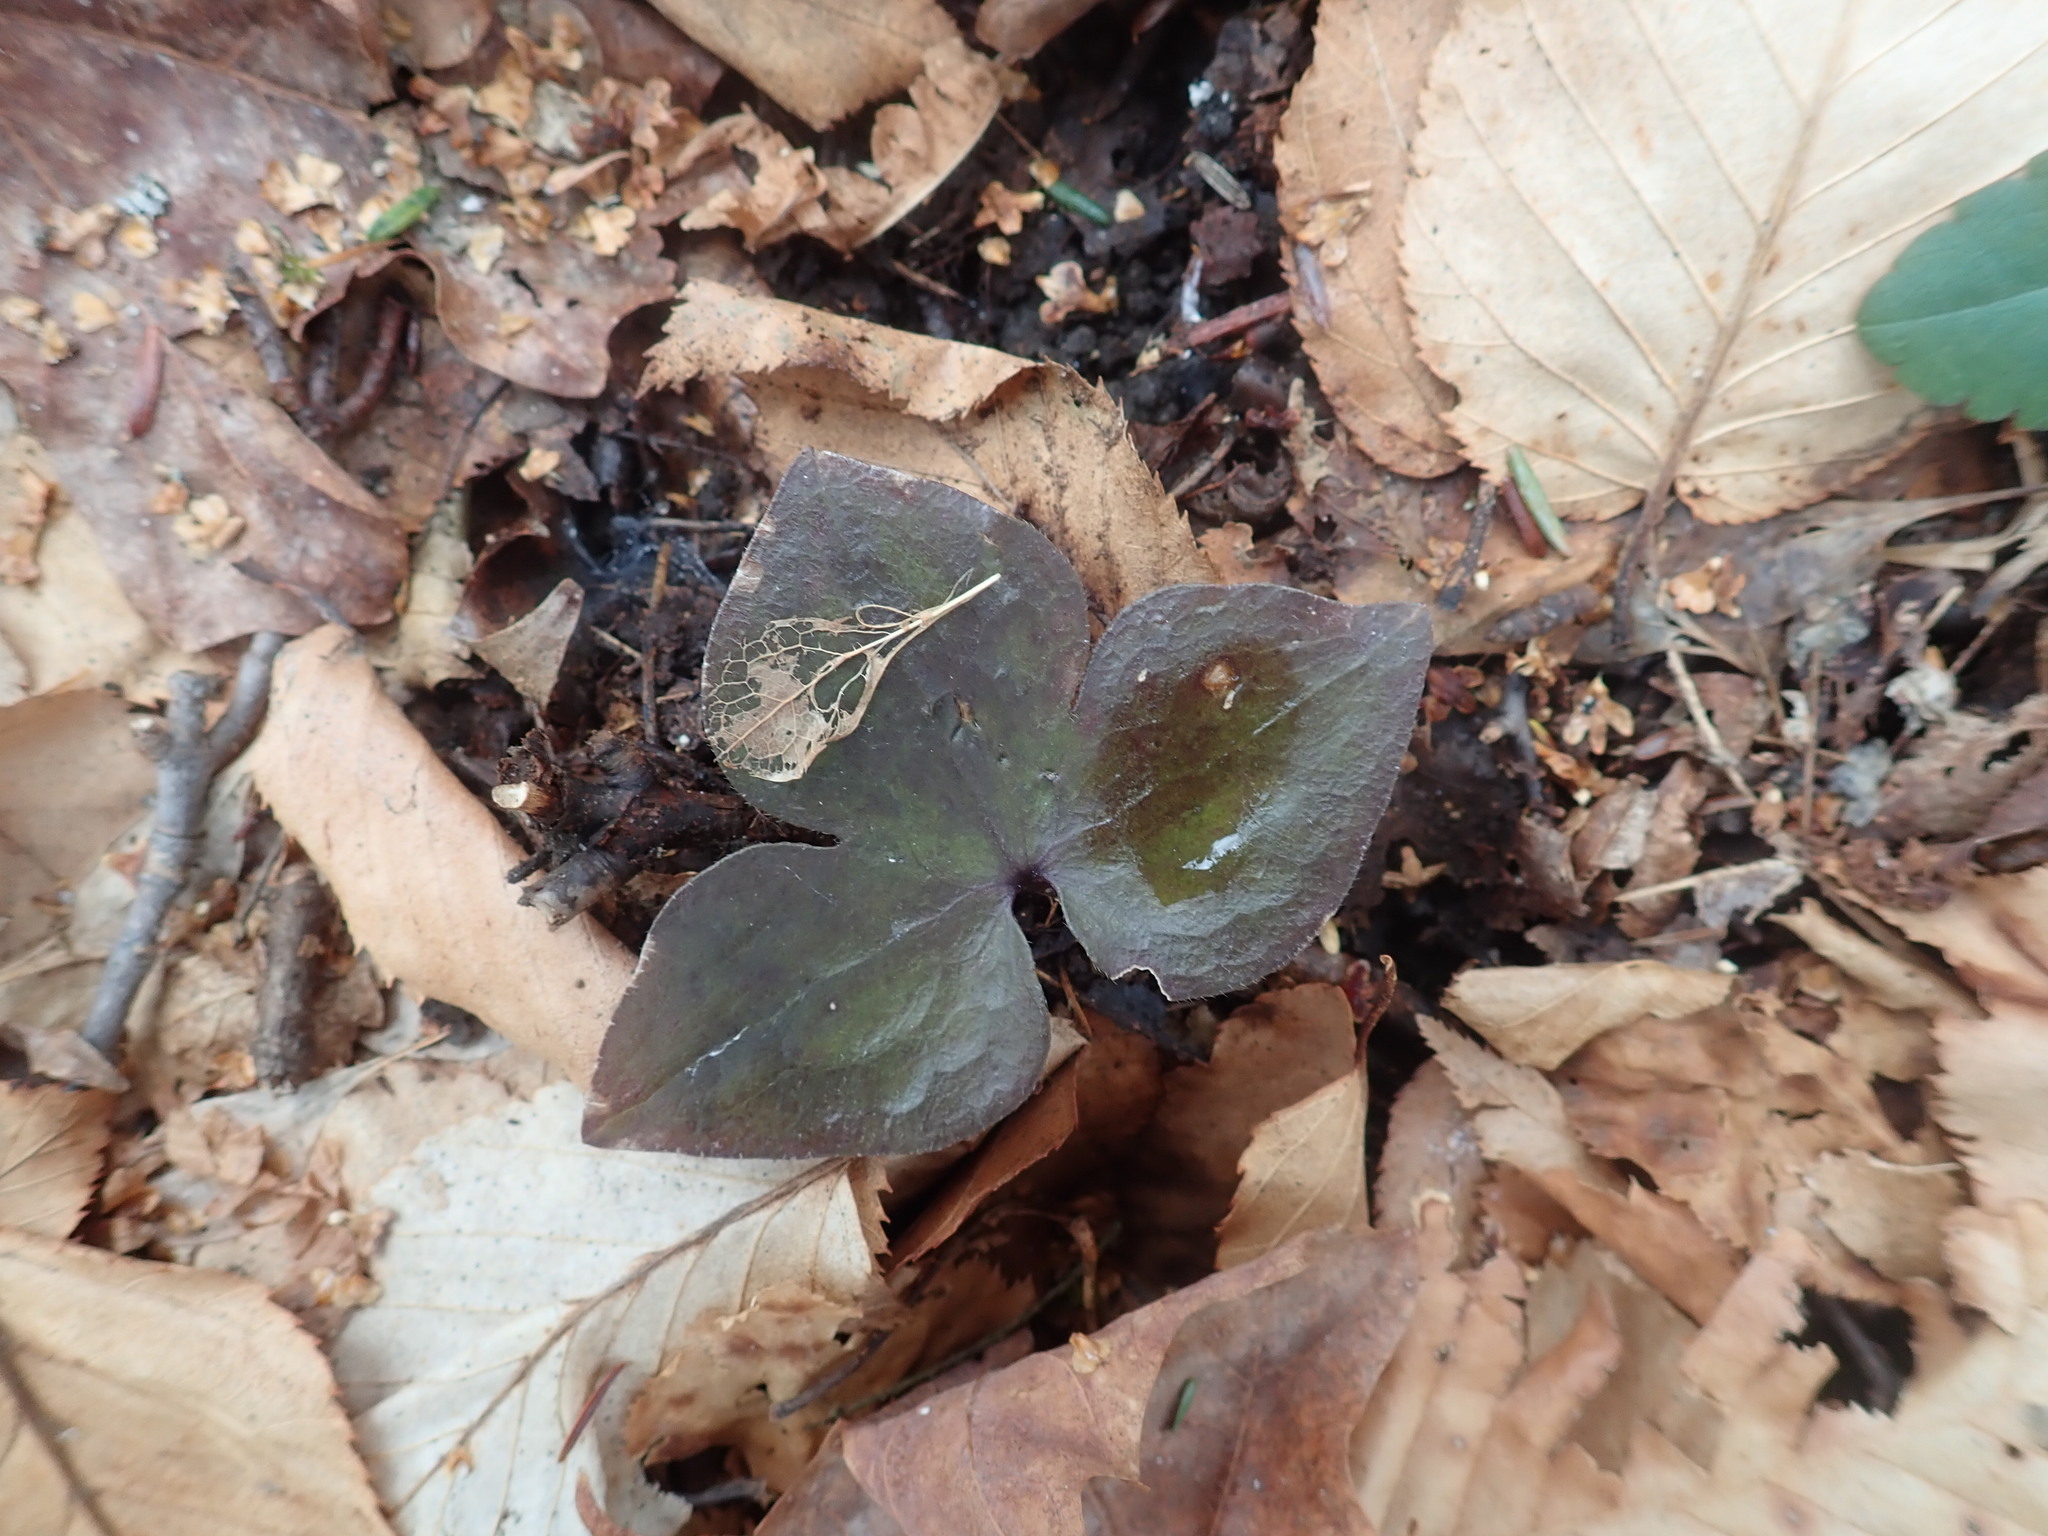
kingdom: Plantae
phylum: Tracheophyta
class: Magnoliopsida
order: Ranunculales
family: Ranunculaceae
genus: Hepatica
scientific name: Hepatica acutiloba
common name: Sharp-lobed hepatica
